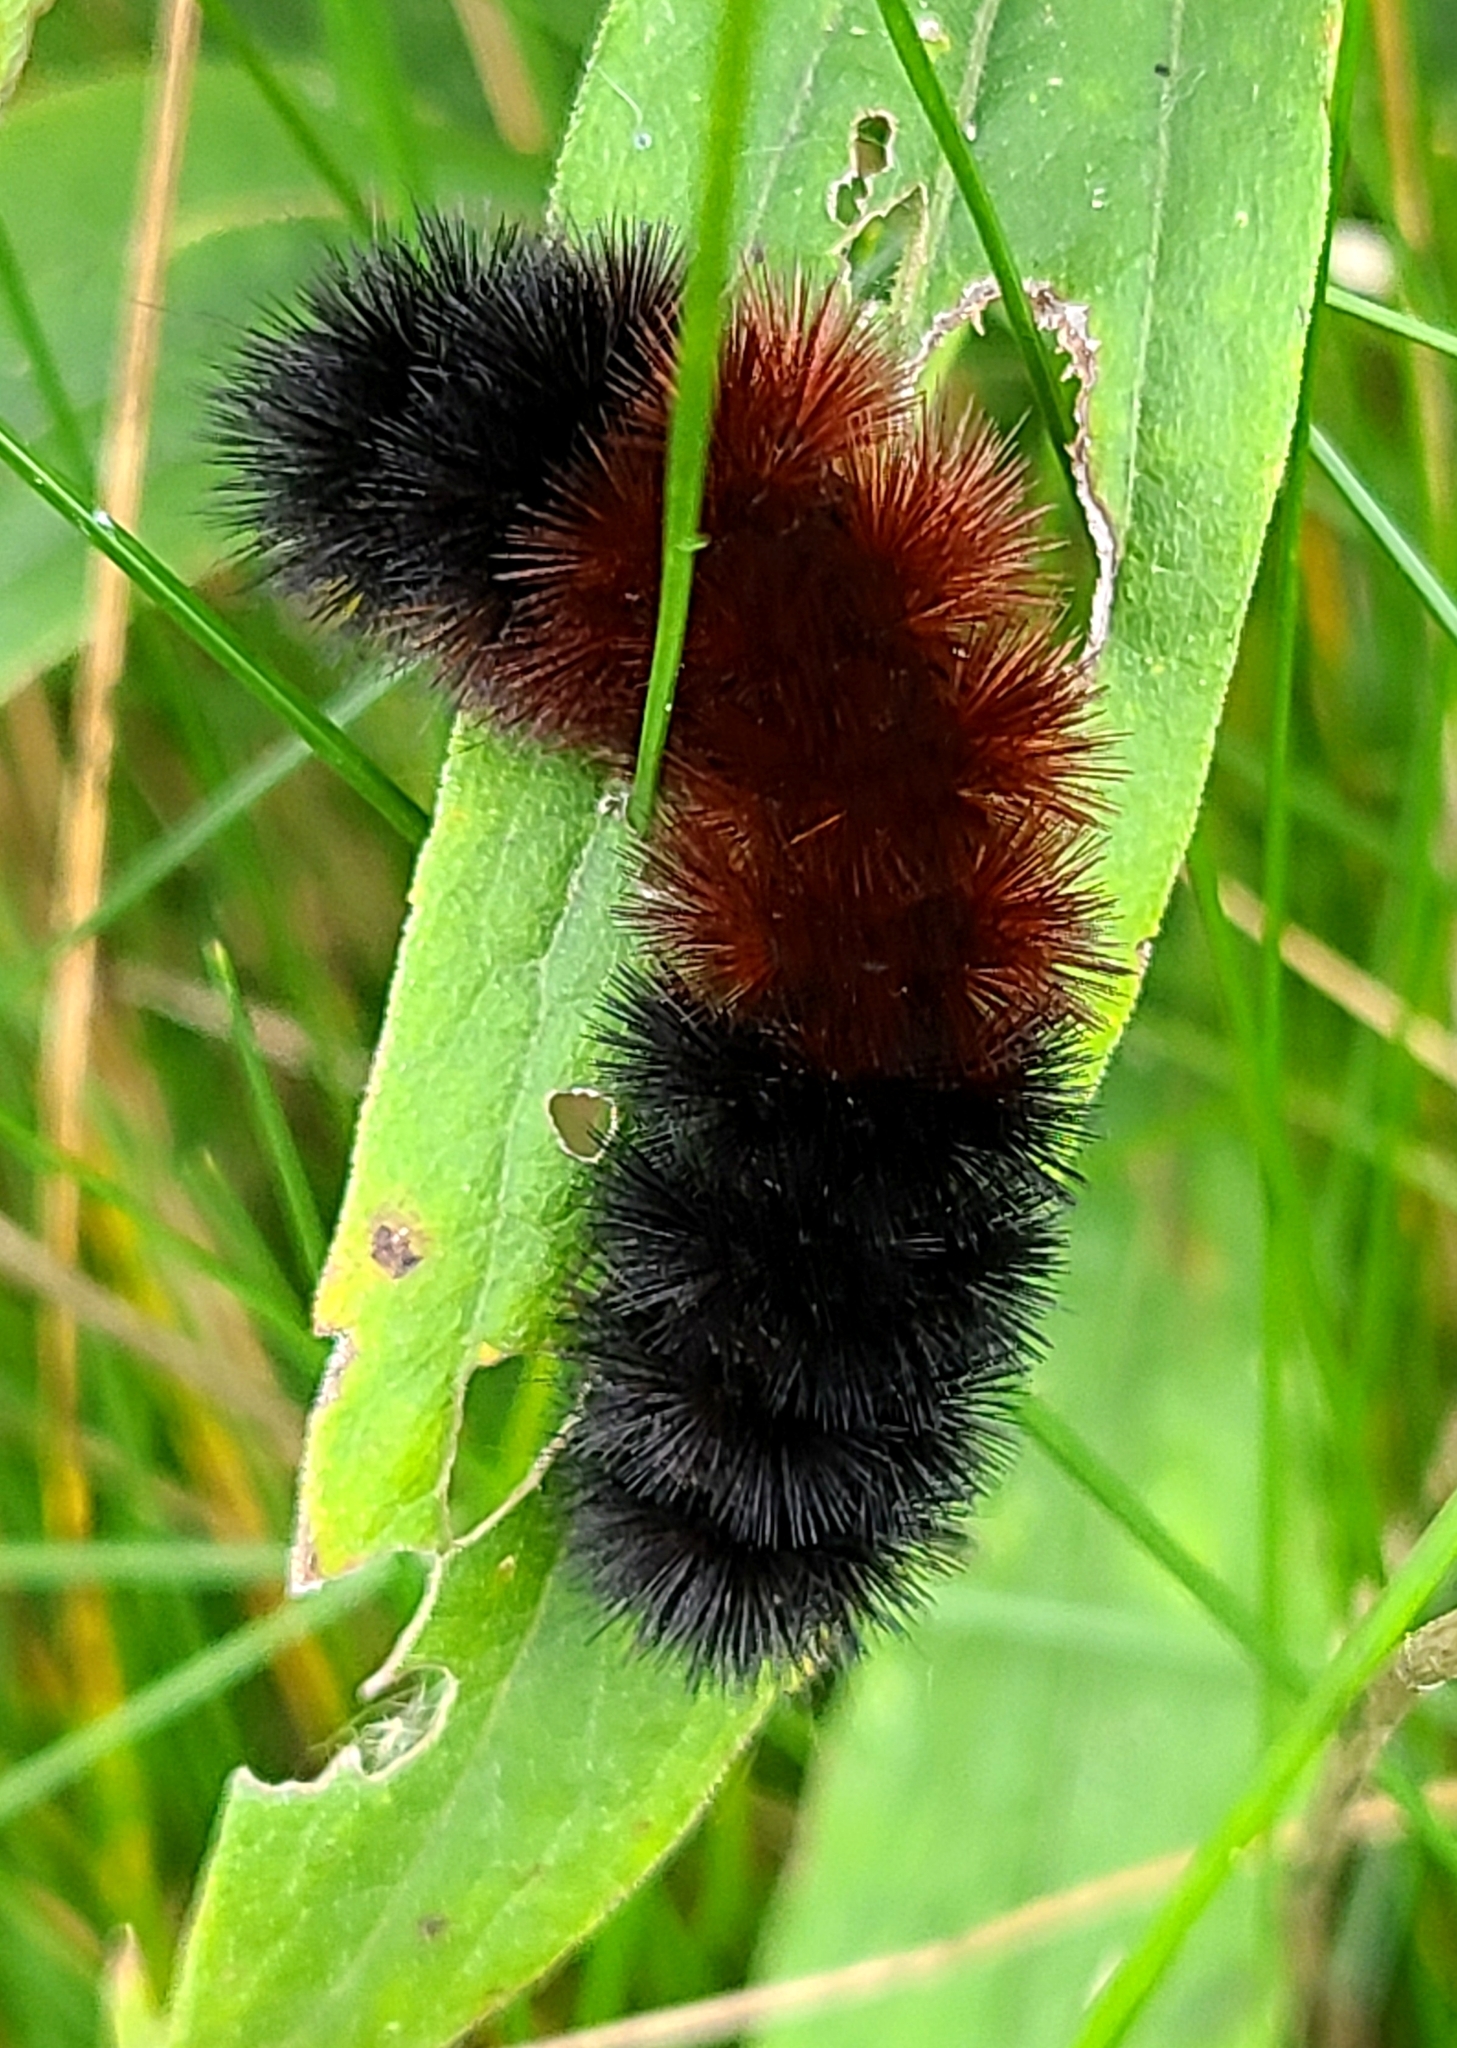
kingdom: Animalia
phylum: Arthropoda
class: Insecta
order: Lepidoptera
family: Erebidae
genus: Pyrrharctia
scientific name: Pyrrharctia isabella
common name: Isabella tiger moth
